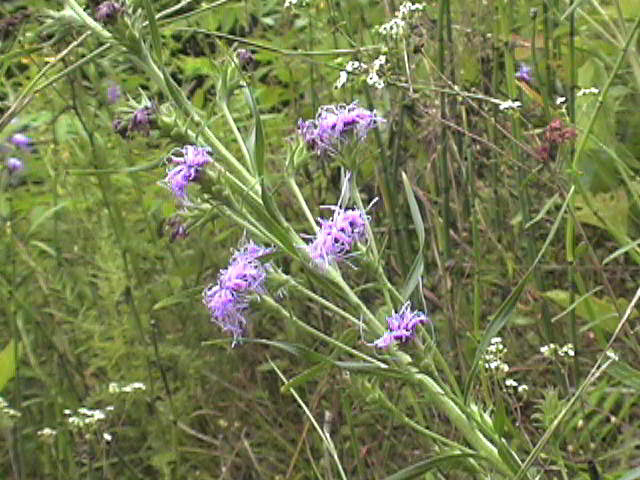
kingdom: Plantae
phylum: Tracheophyta
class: Magnoliopsida
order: Asterales
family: Asteraceae
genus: Liatris
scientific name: Liatris squarrosa
